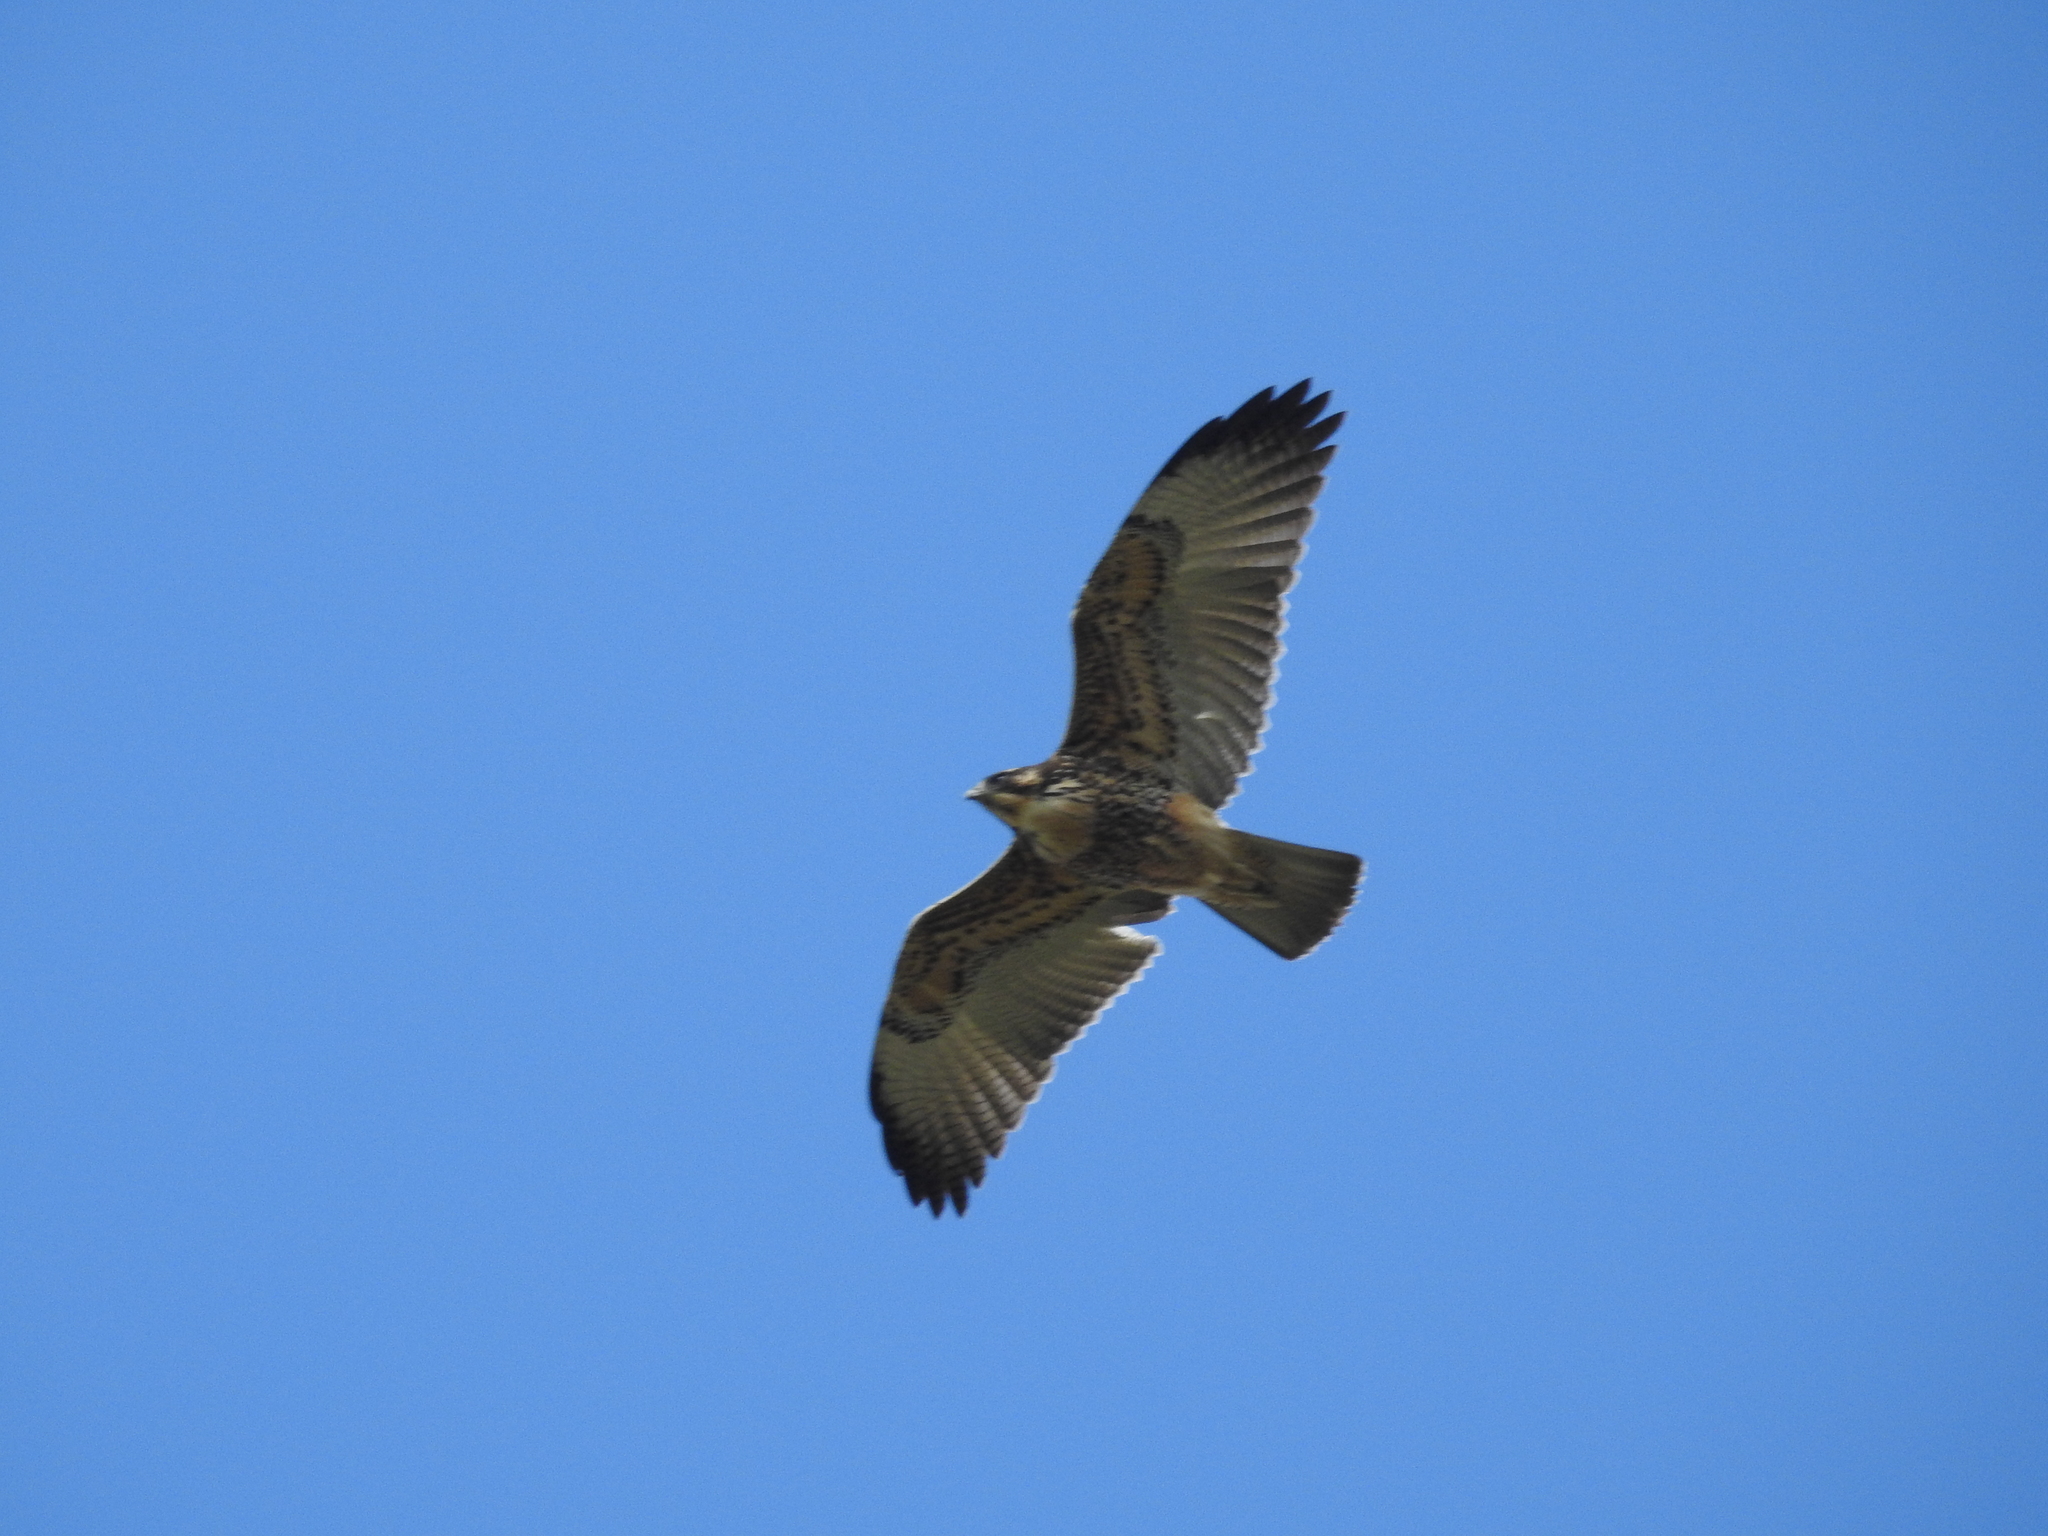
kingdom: Animalia
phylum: Chordata
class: Aves
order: Accipitriformes
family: Accipitridae
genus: Buteo
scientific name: Buteo polyosoma
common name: Variable hawk
